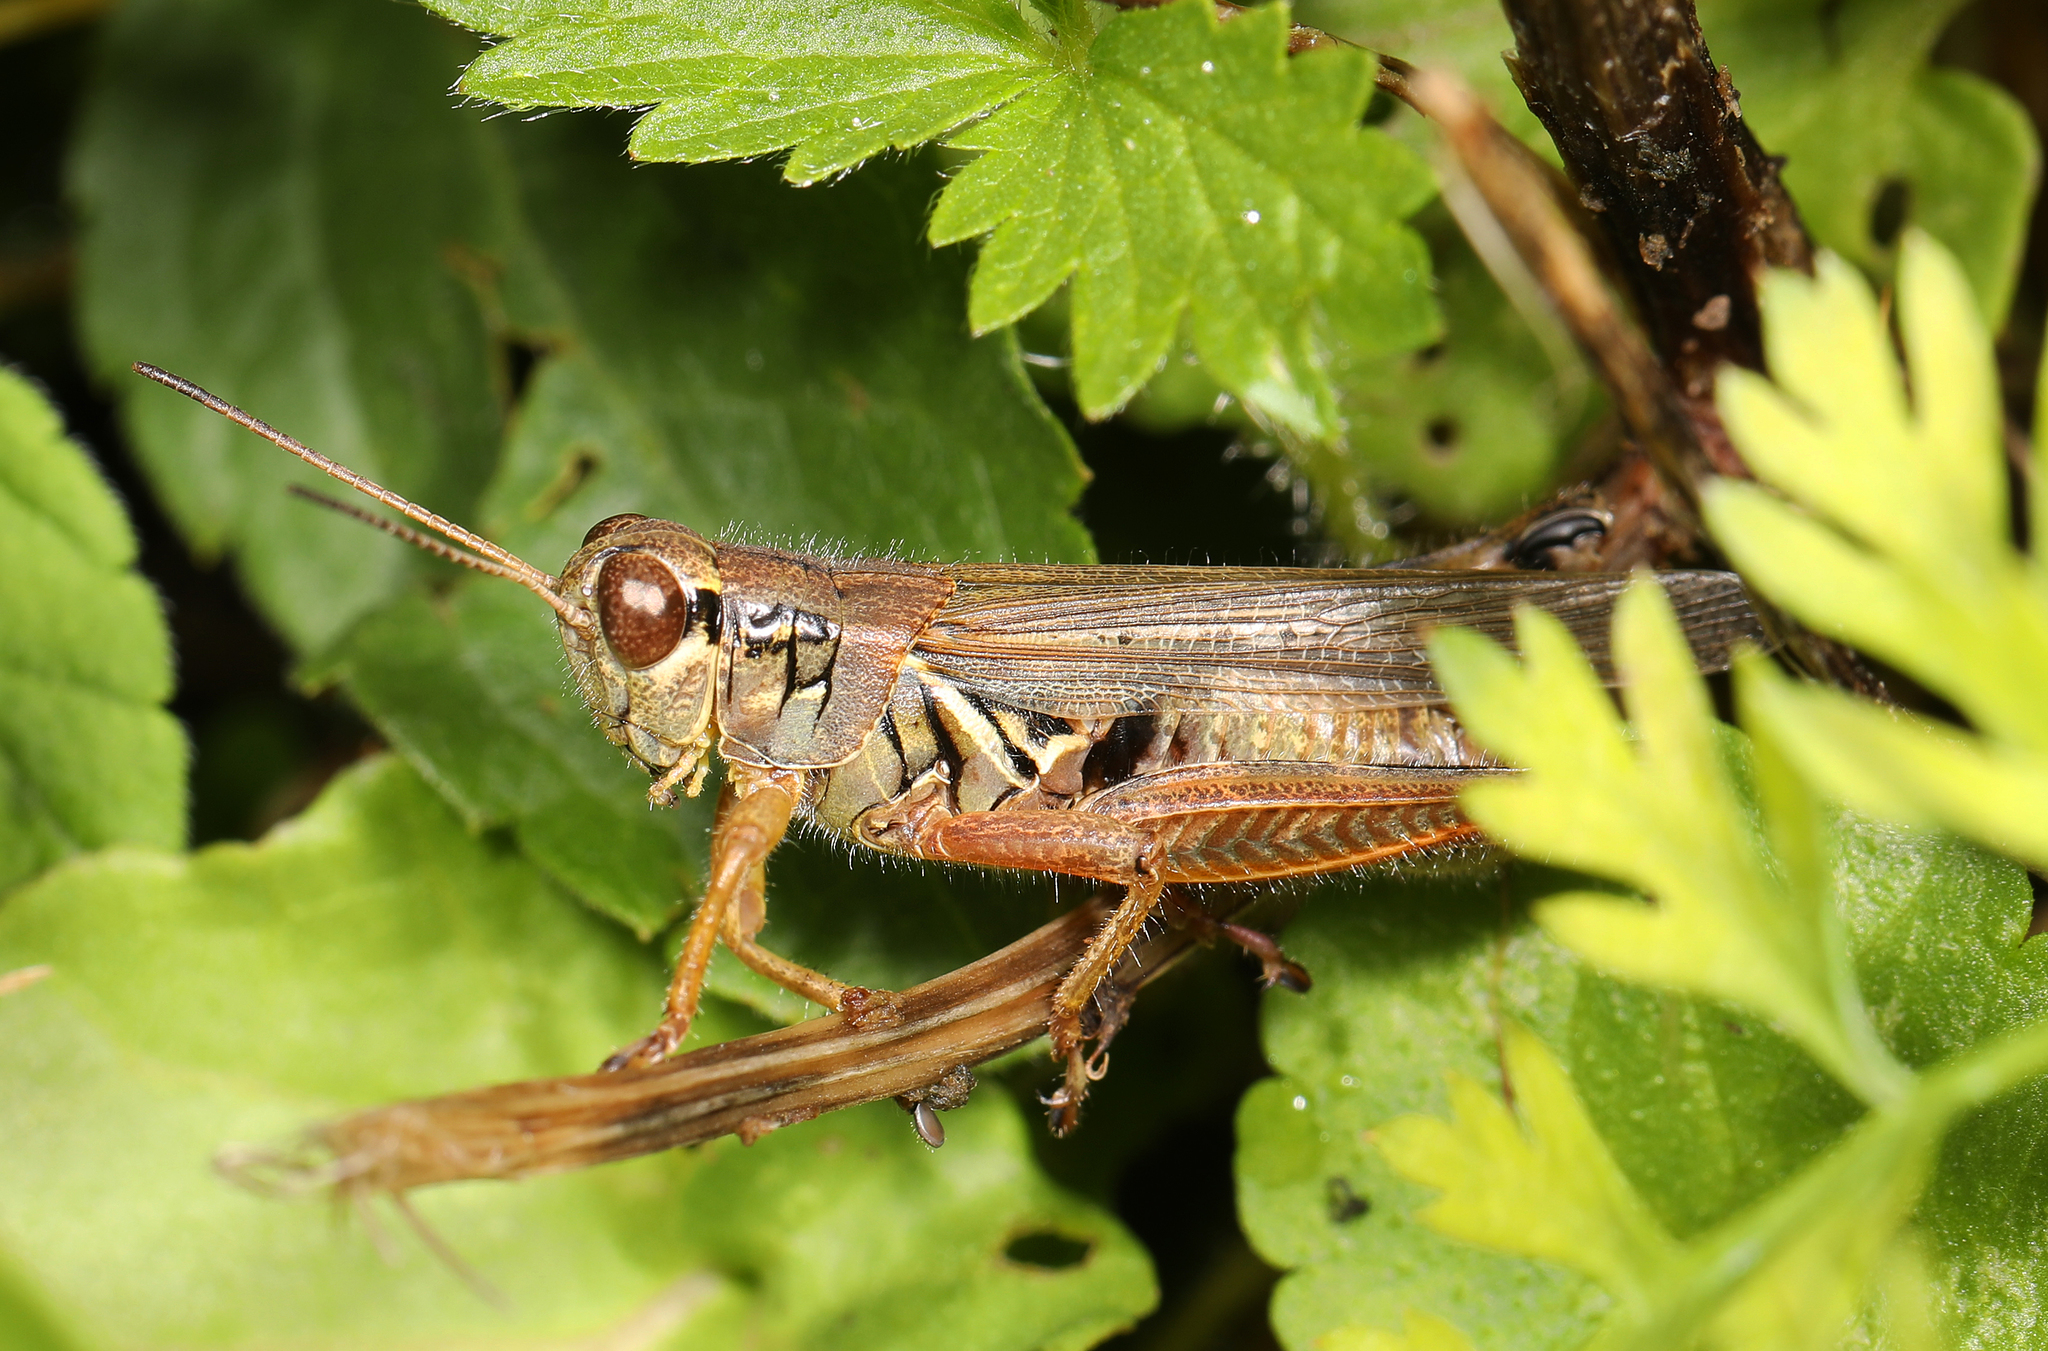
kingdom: Animalia
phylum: Arthropoda
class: Insecta
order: Orthoptera
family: Acrididae
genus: Melanoplus
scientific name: Melanoplus femurrubrum
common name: Red-legged grasshopper
